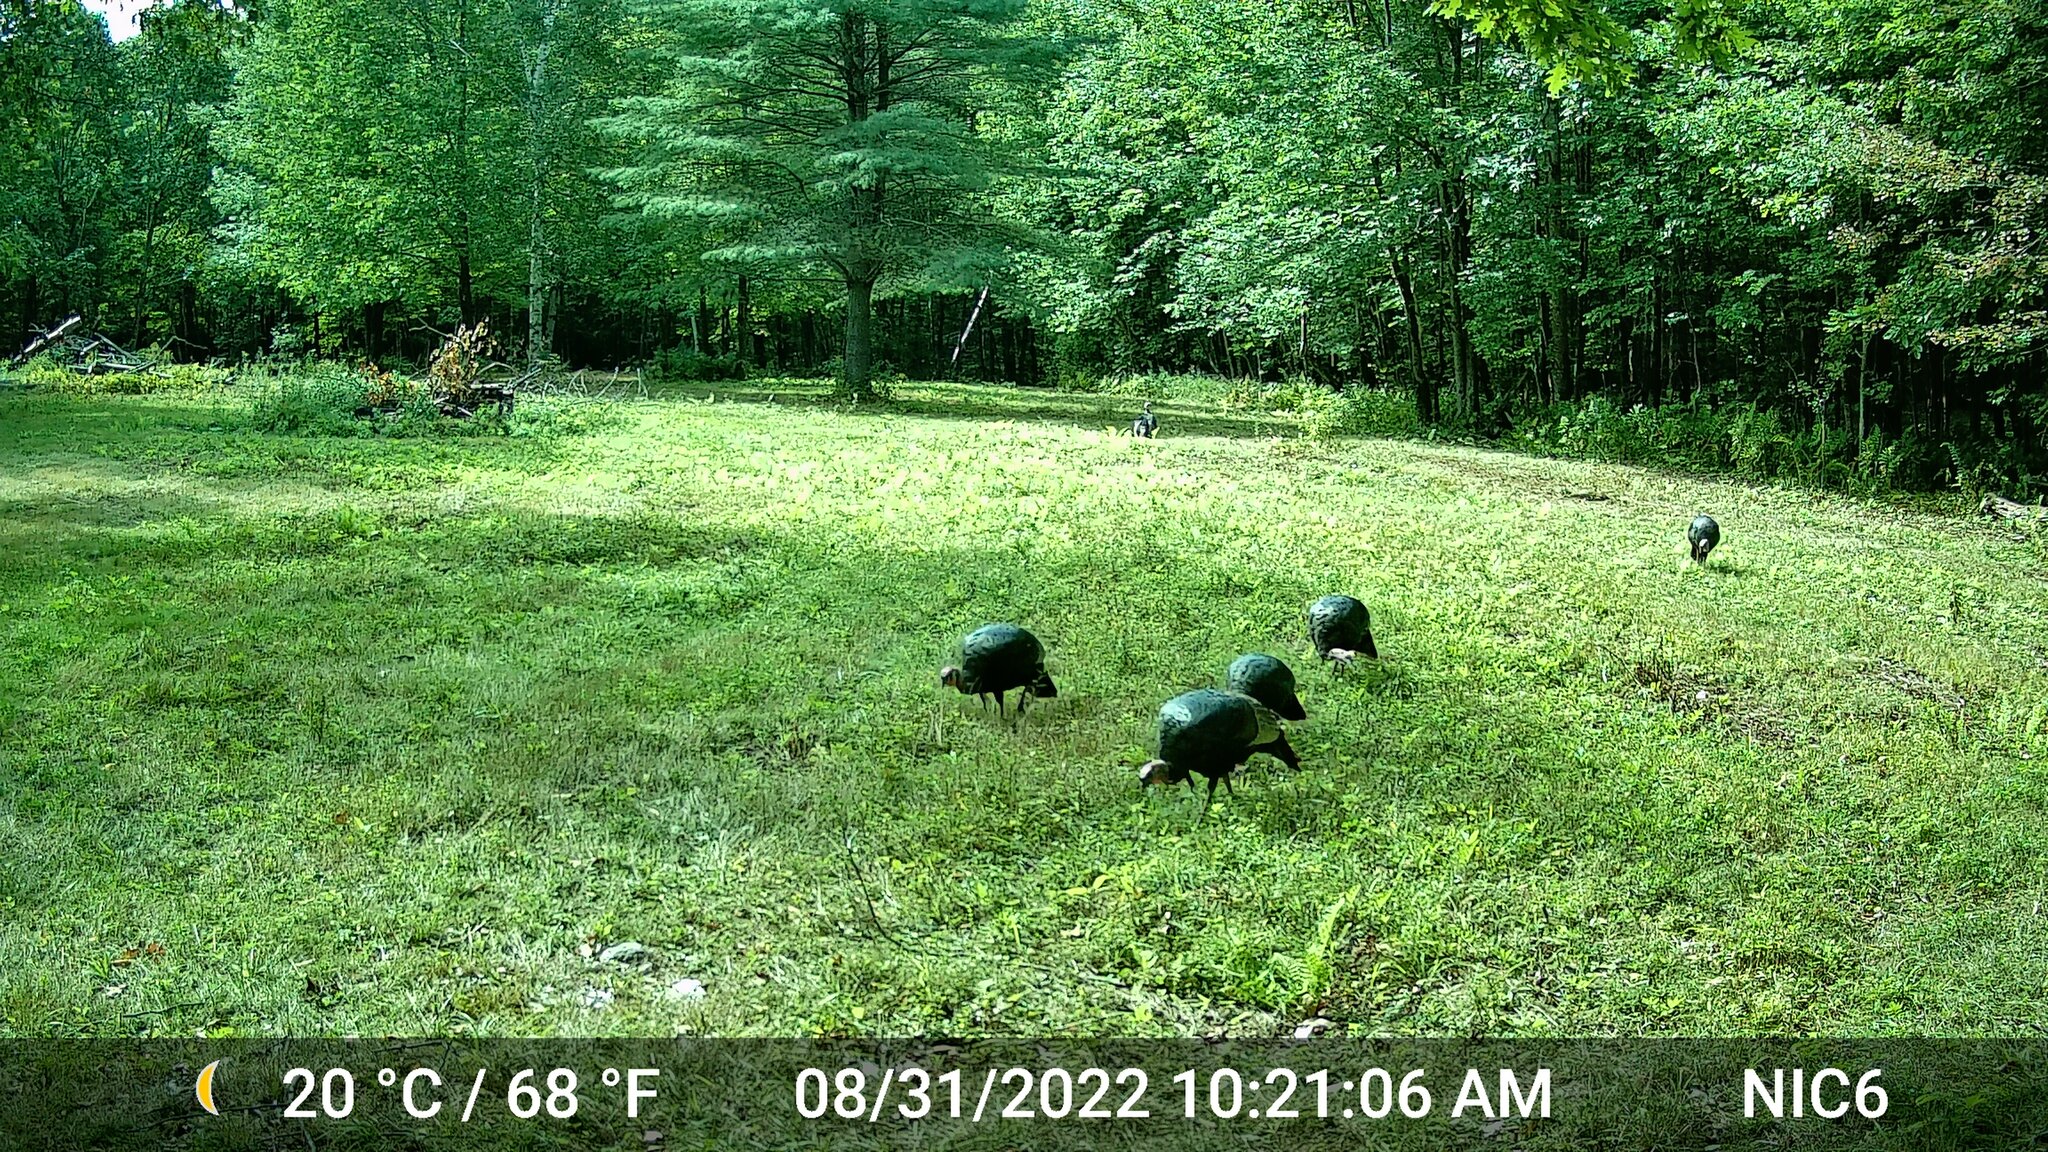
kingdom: Animalia
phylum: Chordata
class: Aves
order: Galliformes
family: Phasianidae
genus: Meleagris
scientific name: Meleagris gallopavo
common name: Wild turkey
